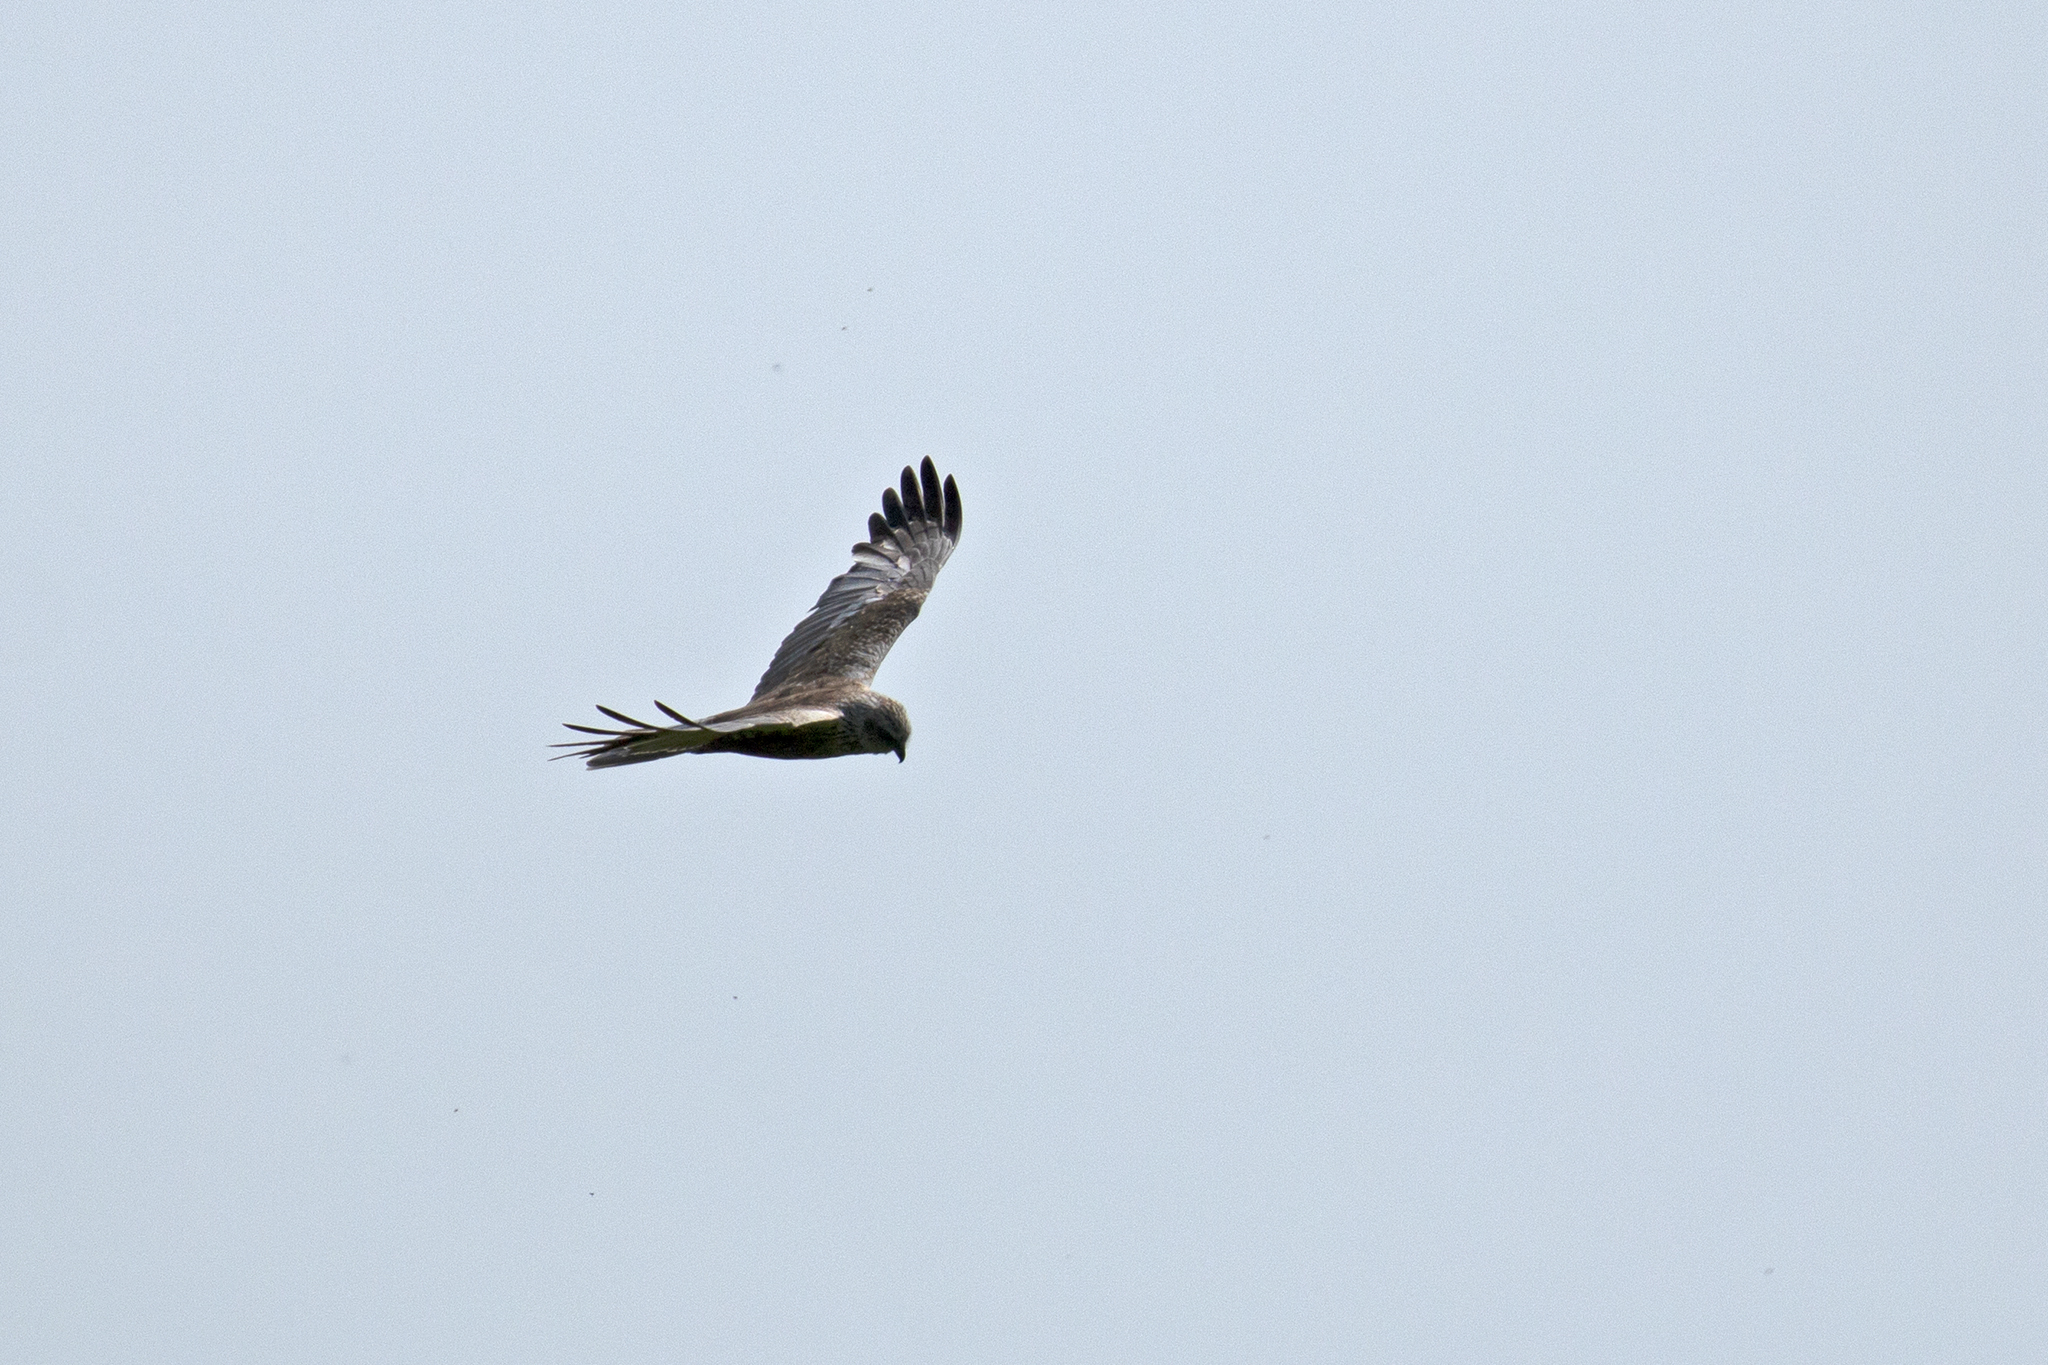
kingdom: Animalia
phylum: Chordata
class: Aves
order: Accipitriformes
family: Accipitridae
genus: Circus
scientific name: Circus aeruginosus
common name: Western marsh harrier
